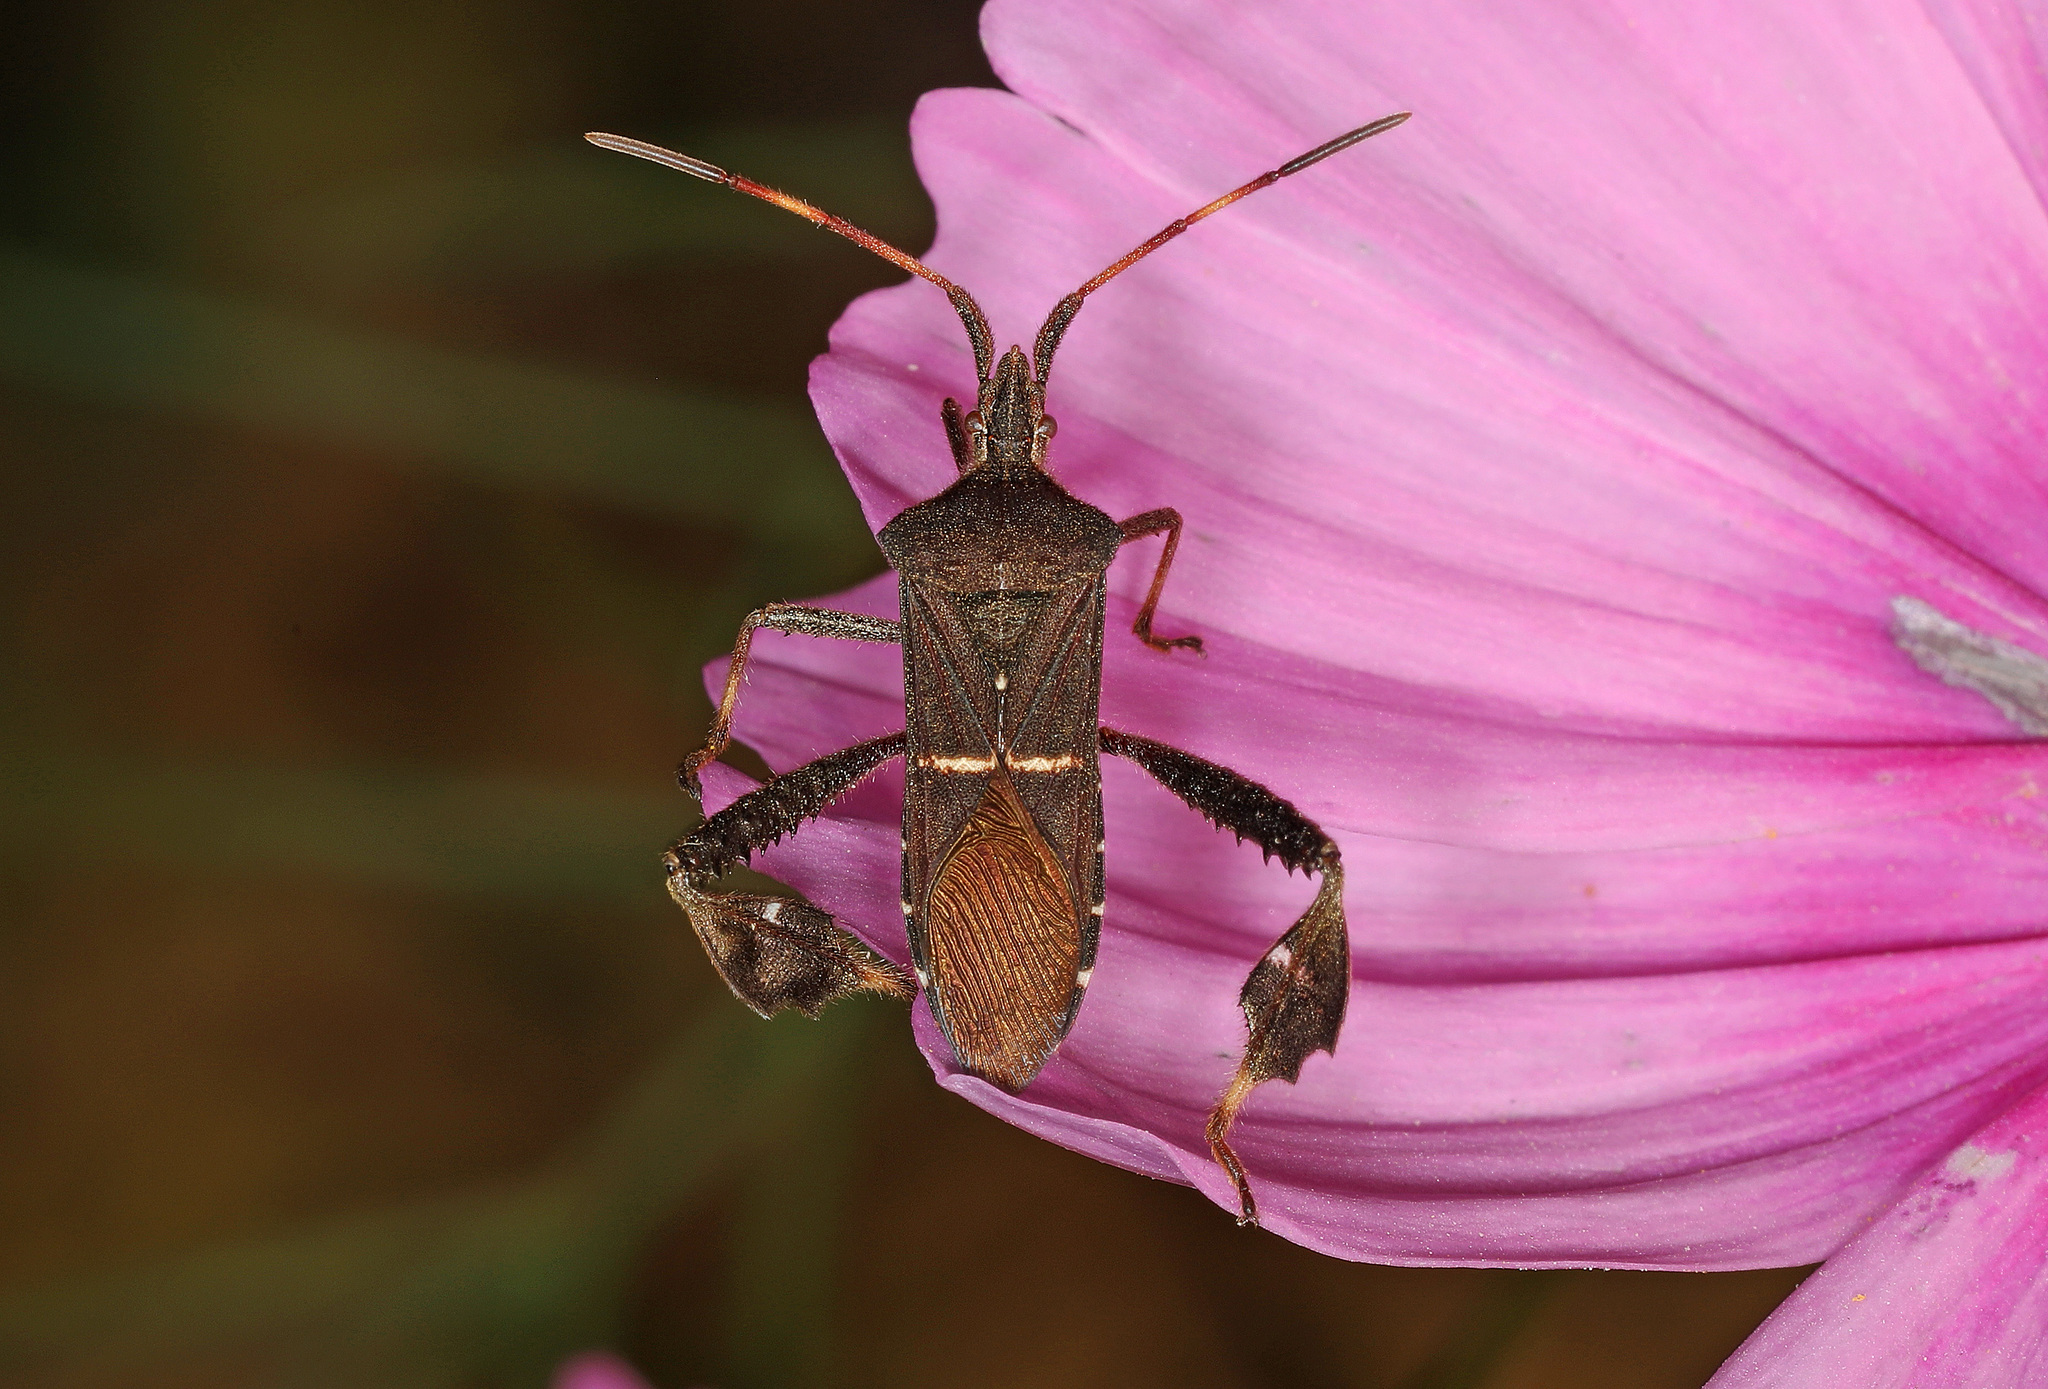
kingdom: Animalia
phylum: Arthropoda
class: Insecta
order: Hemiptera
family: Coreidae
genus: Leptoglossus
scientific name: Leptoglossus phyllopus
